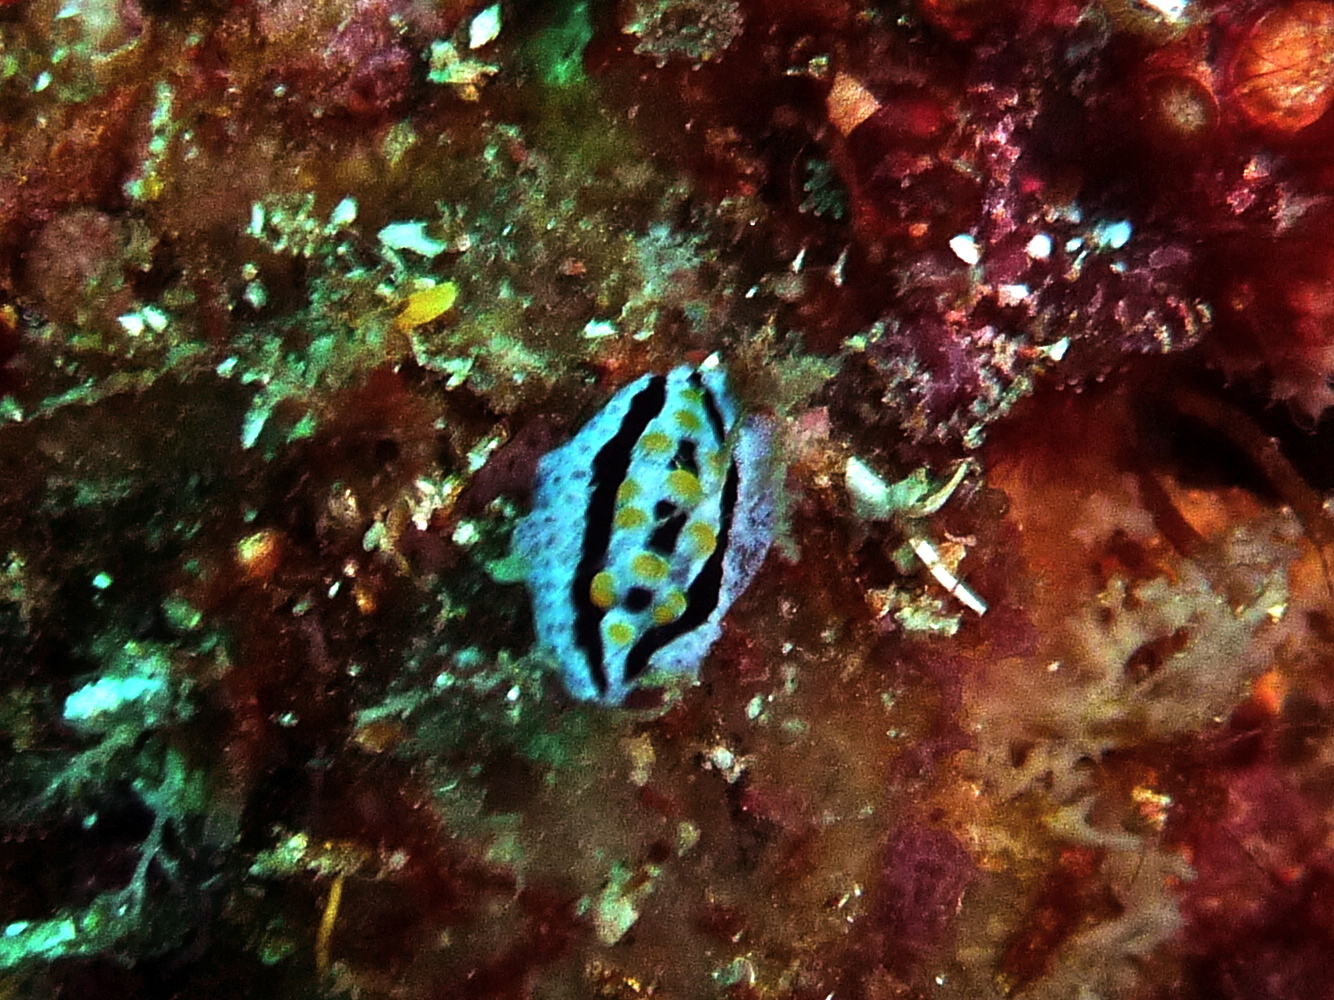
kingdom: Animalia
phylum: Mollusca
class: Gastropoda
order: Nudibranchia
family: Phyllidiidae
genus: Phyllidia
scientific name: Phyllidia coelestis
